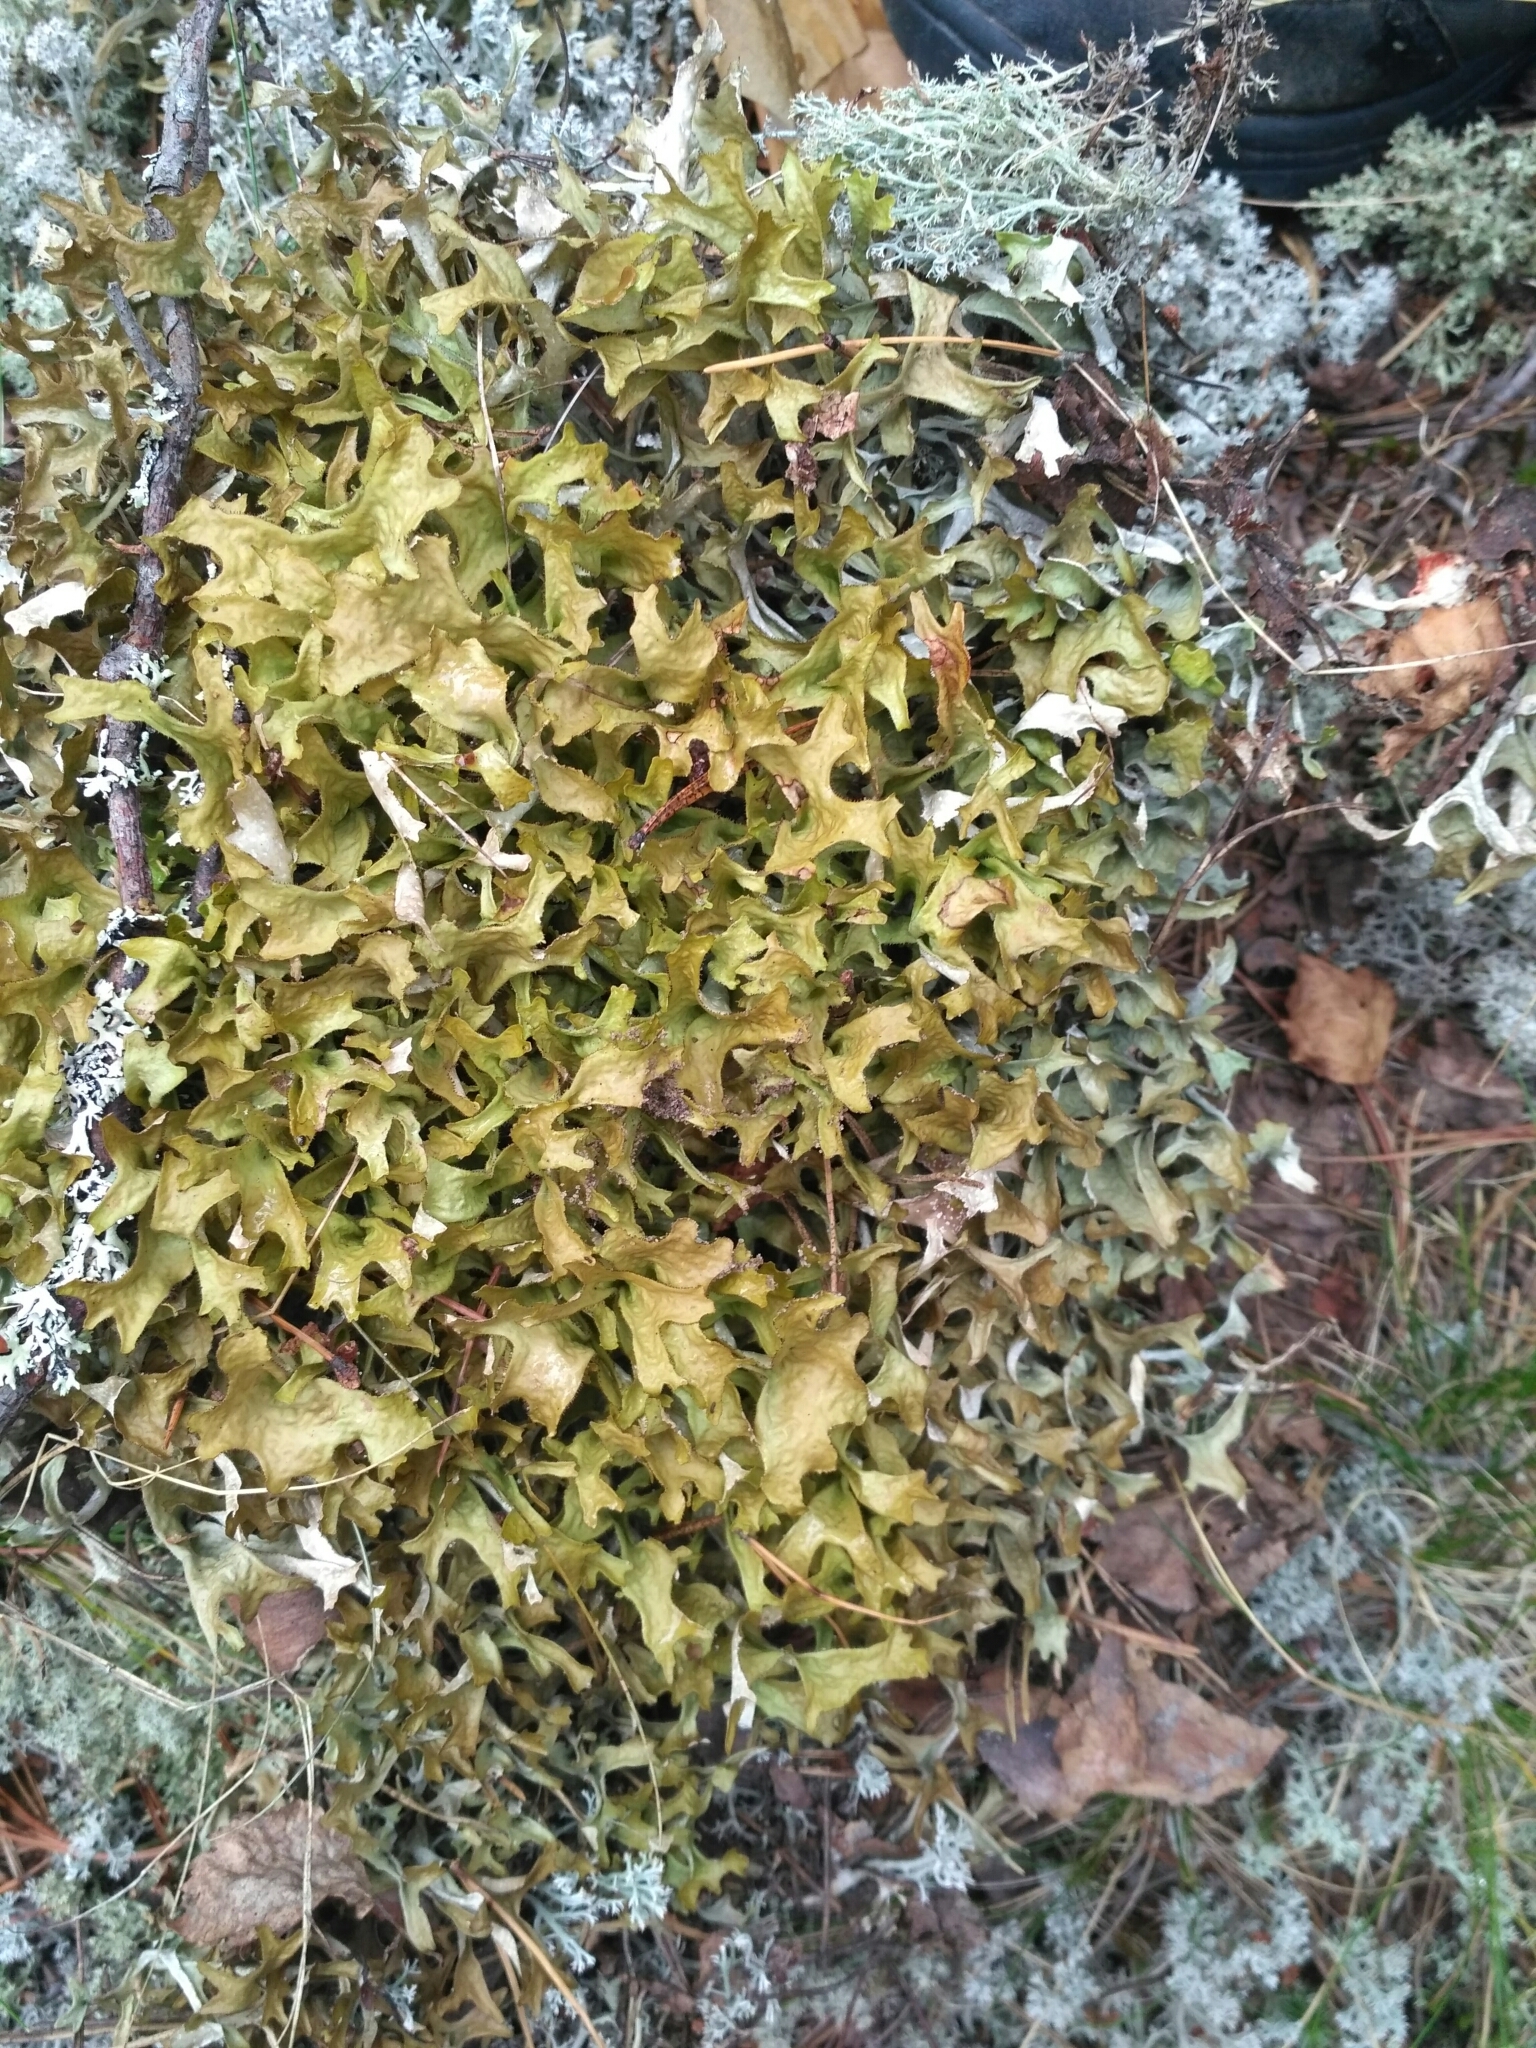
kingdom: Fungi
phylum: Ascomycota
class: Lecanoromycetes
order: Lecanorales
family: Parmeliaceae
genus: Cetraria
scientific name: Cetraria islandica
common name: Iceland lichen
